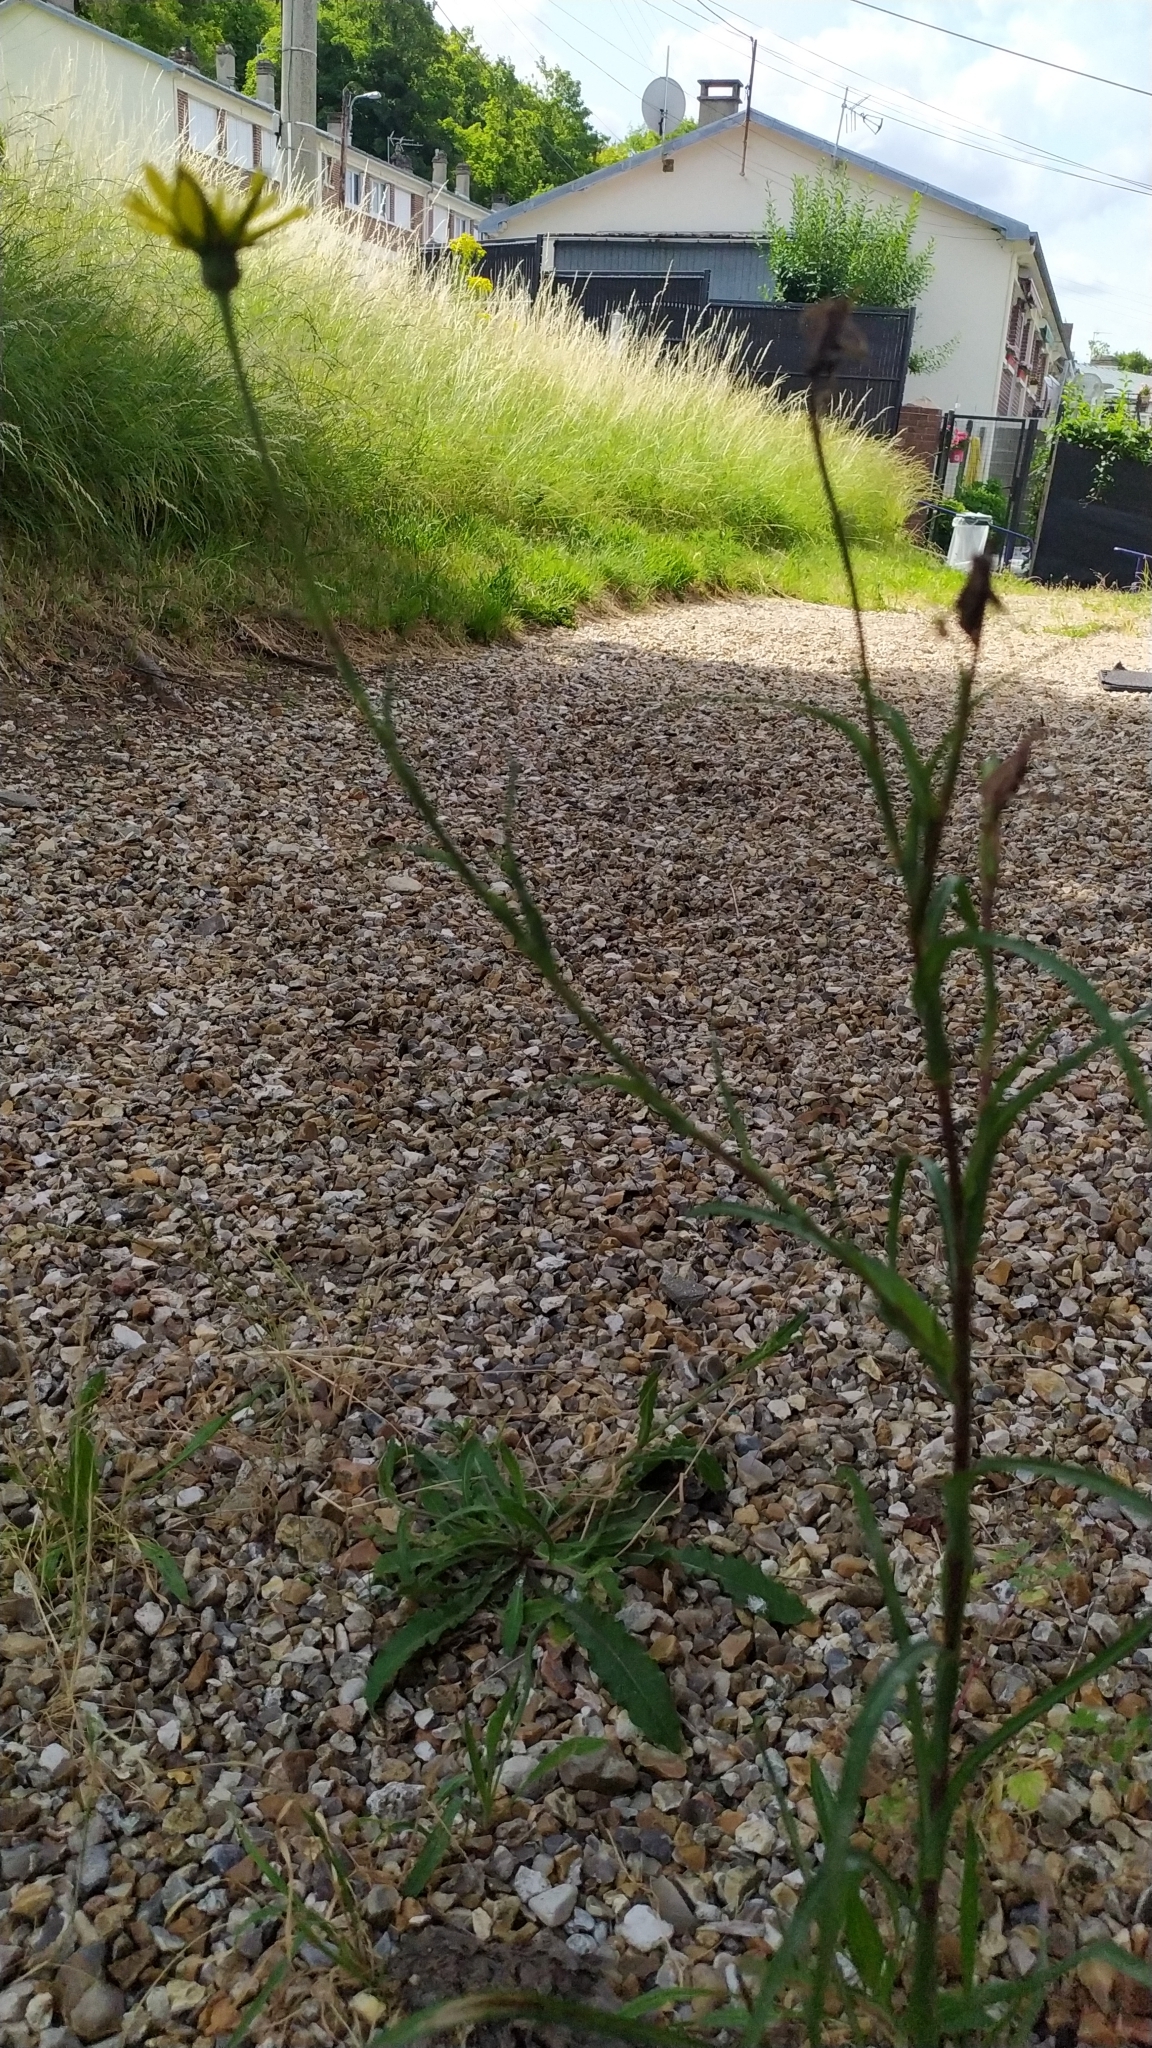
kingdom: Plantae
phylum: Tracheophyta
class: Magnoliopsida
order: Asterales
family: Asteraceae
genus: Tragopogon
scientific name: Tragopogon pratensis
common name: Goat's-beard
